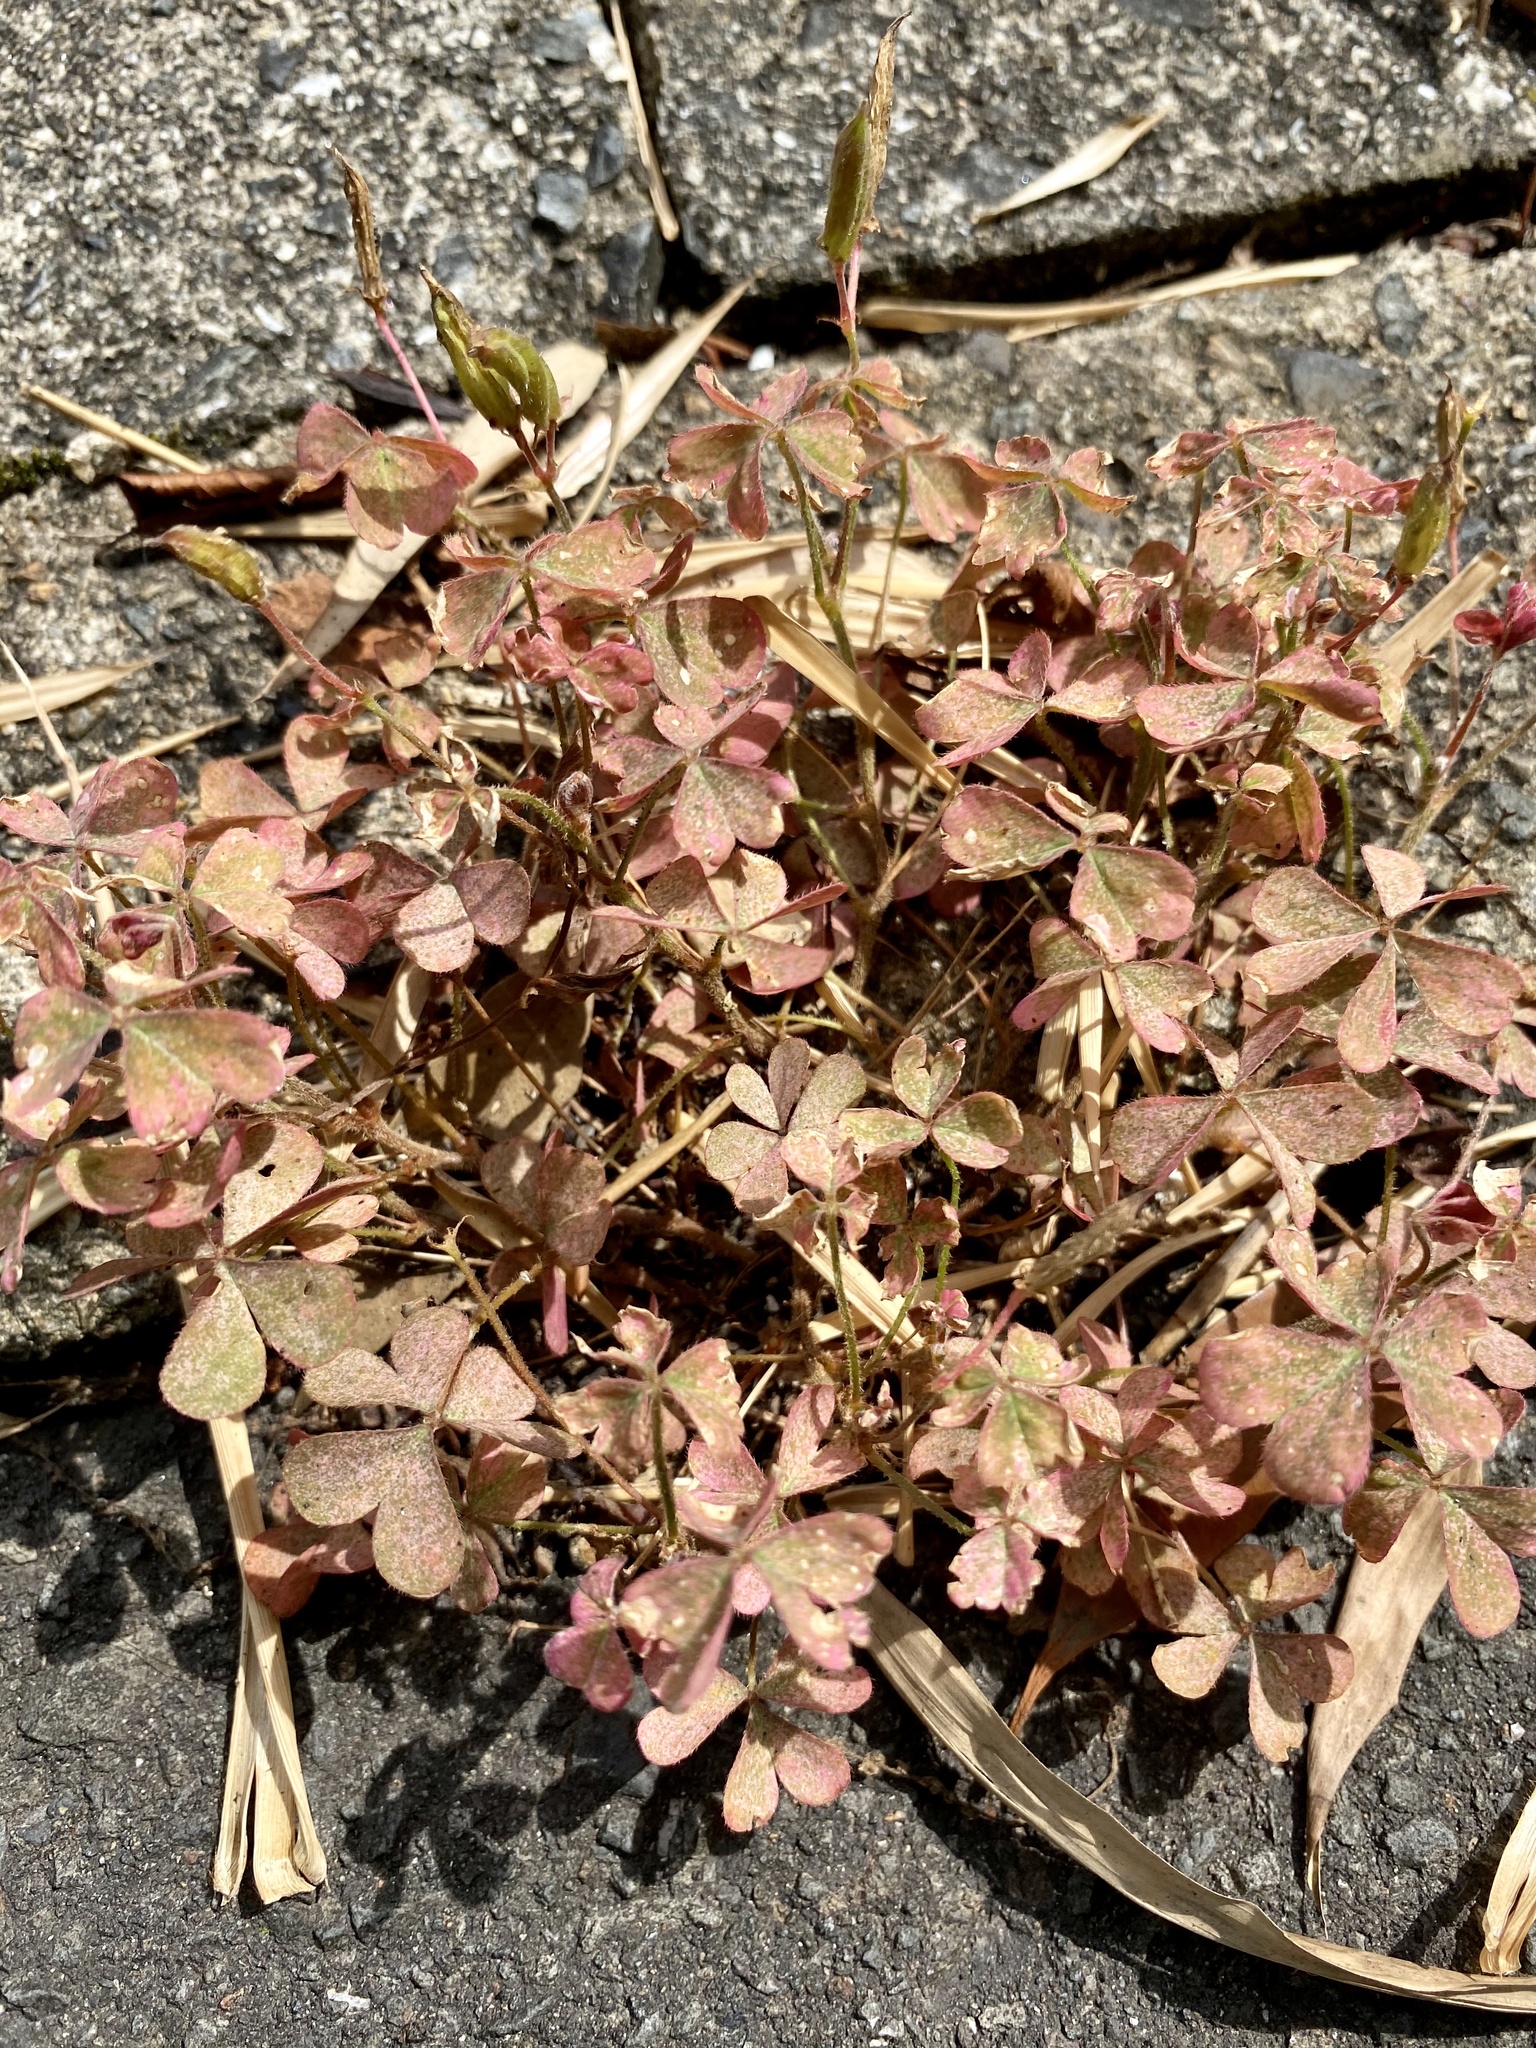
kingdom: Plantae
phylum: Tracheophyta
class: Magnoliopsida
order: Oxalidales
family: Oxalidaceae
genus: Oxalis
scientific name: Oxalis corniculata
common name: Procumbent yellow-sorrel
